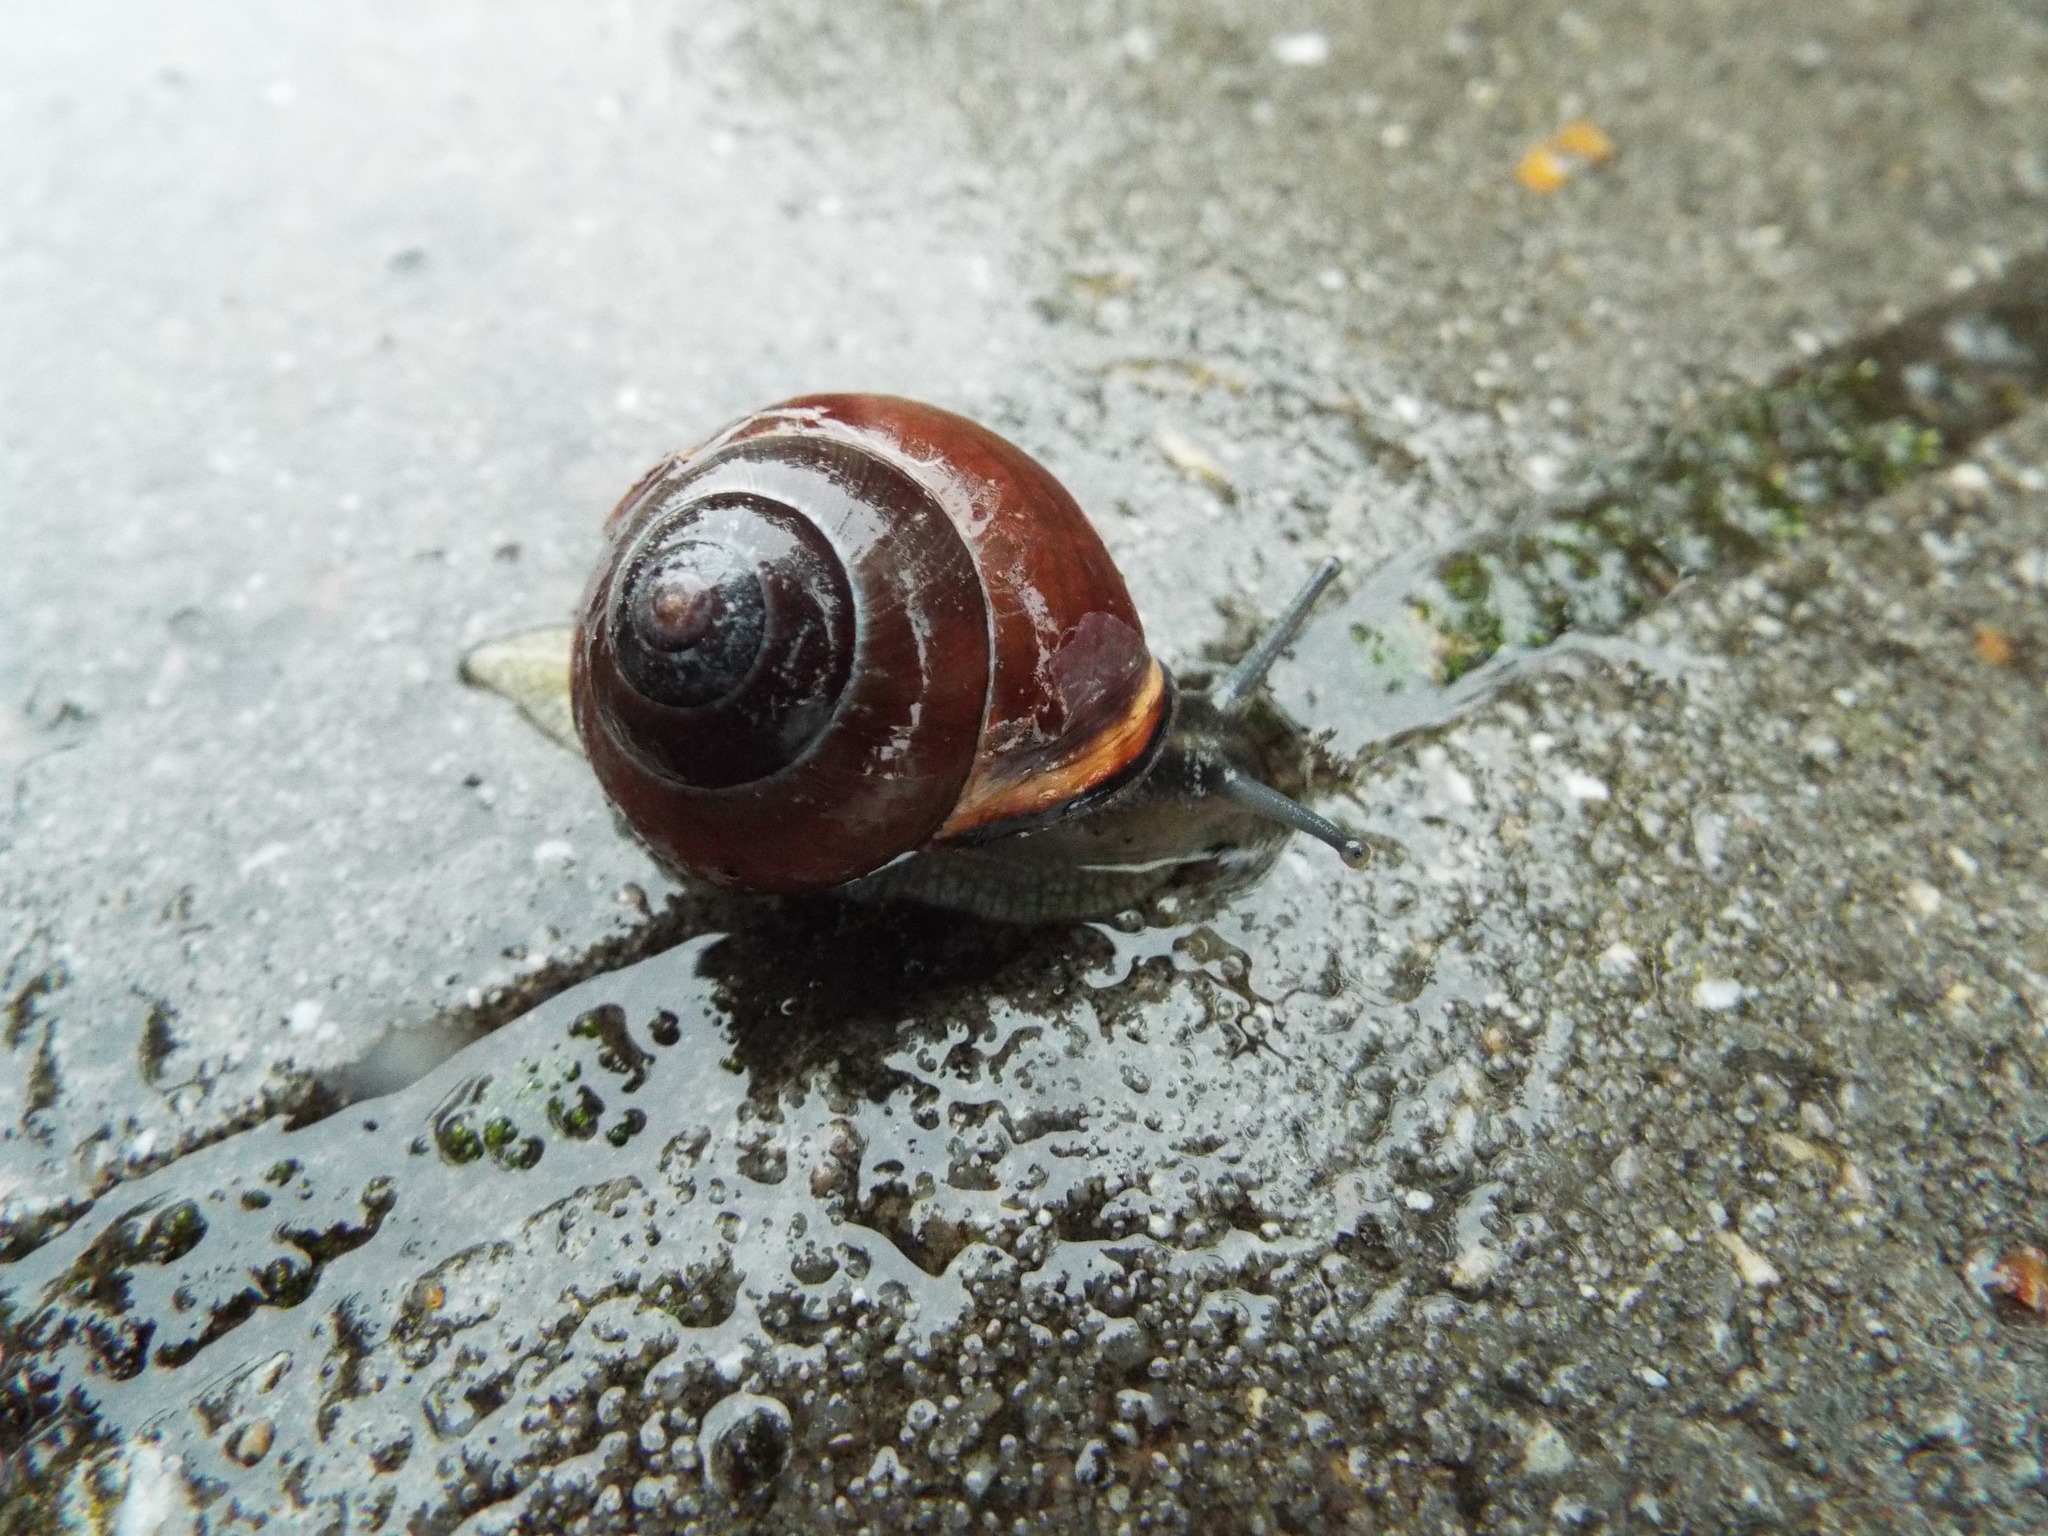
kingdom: Animalia
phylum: Mollusca
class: Gastropoda
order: Stylommatophora
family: Helicidae
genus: Cepaea
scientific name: Cepaea nemoralis
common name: Grovesnail
